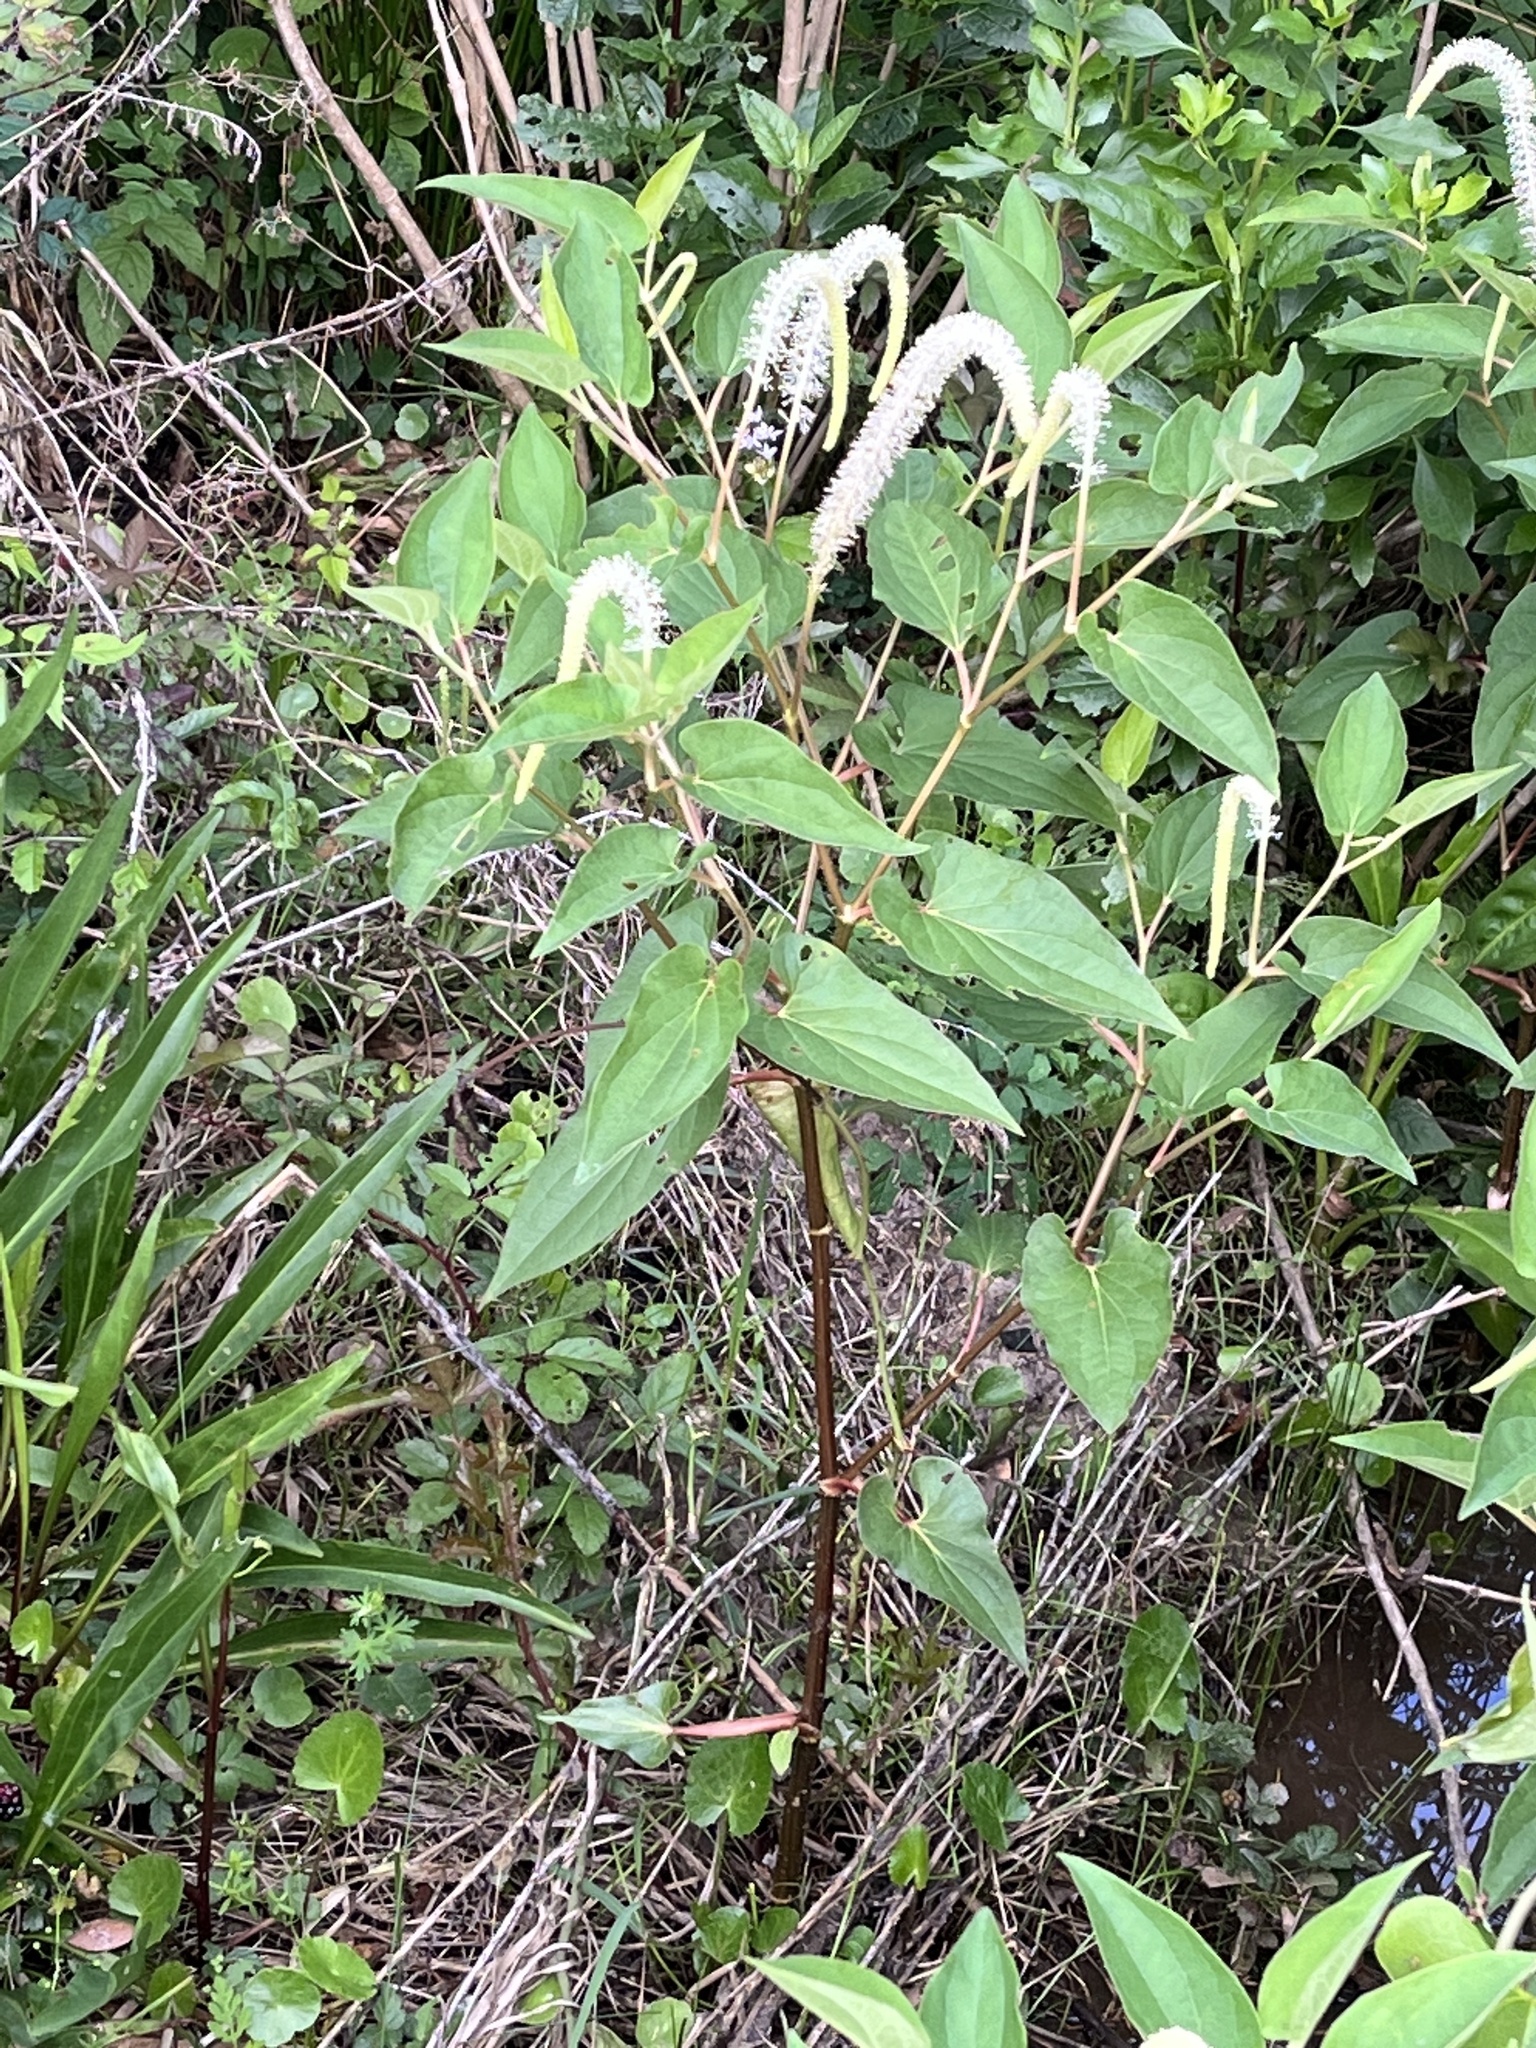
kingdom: Plantae
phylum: Tracheophyta
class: Magnoliopsida
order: Piperales
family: Saururaceae
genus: Saururus
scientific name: Saururus cernuus
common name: Lizard's-tail
